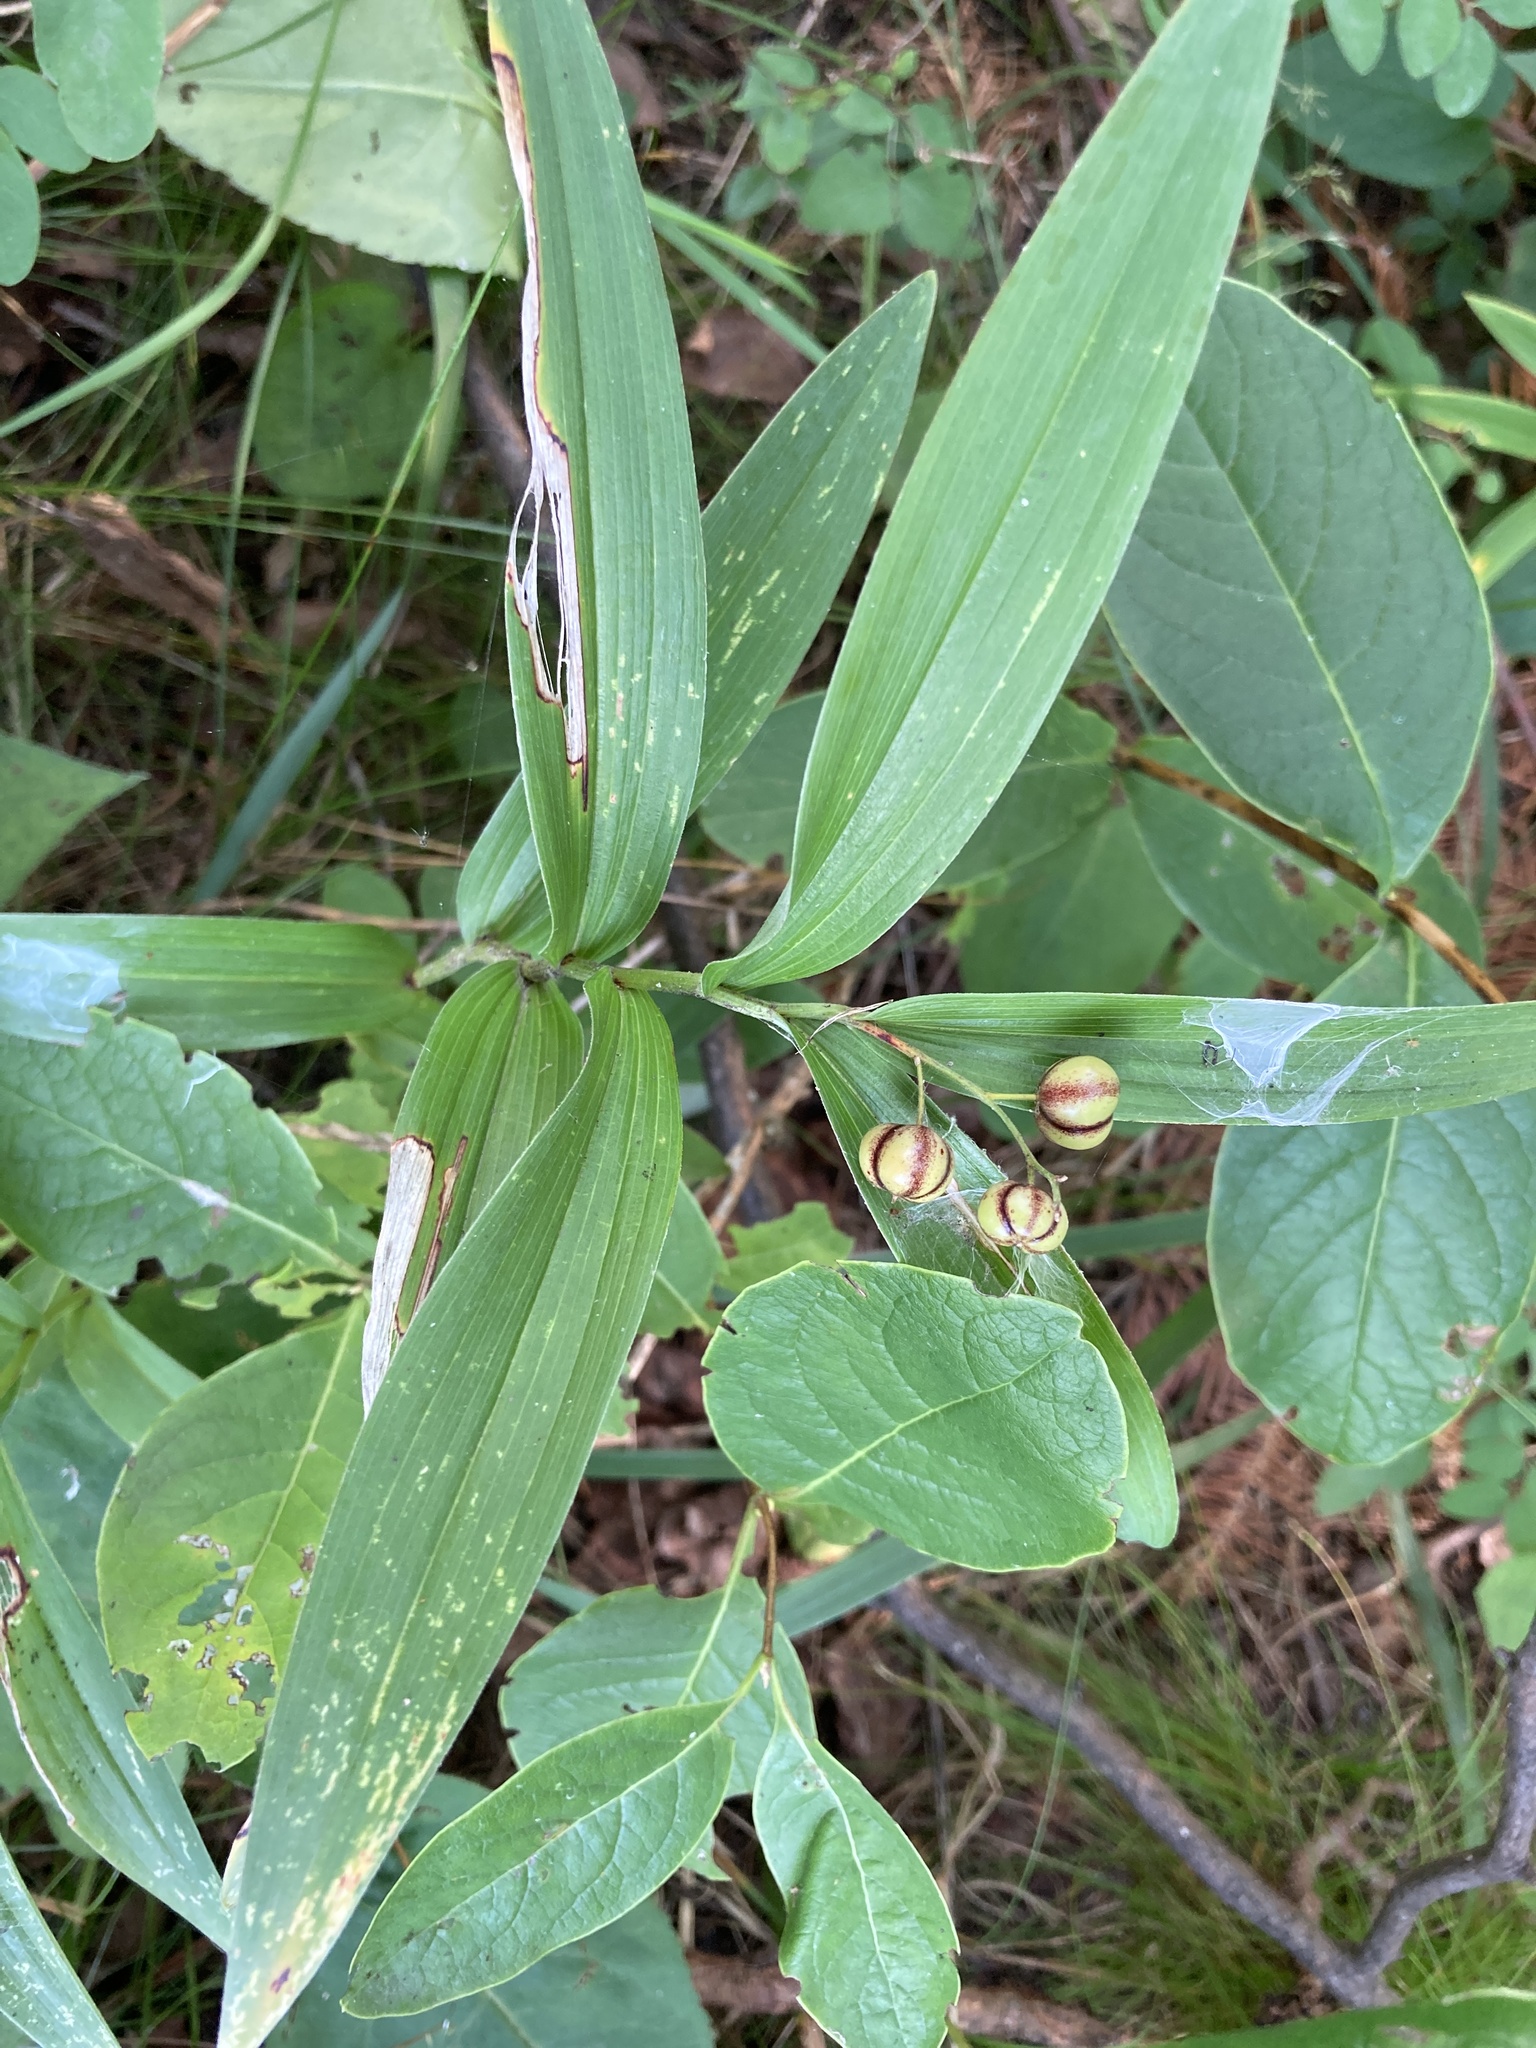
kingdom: Plantae
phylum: Tracheophyta
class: Liliopsida
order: Asparagales
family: Asparagaceae
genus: Maianthemum
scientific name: Maianthemum stellatum
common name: Little false solomon's seal
